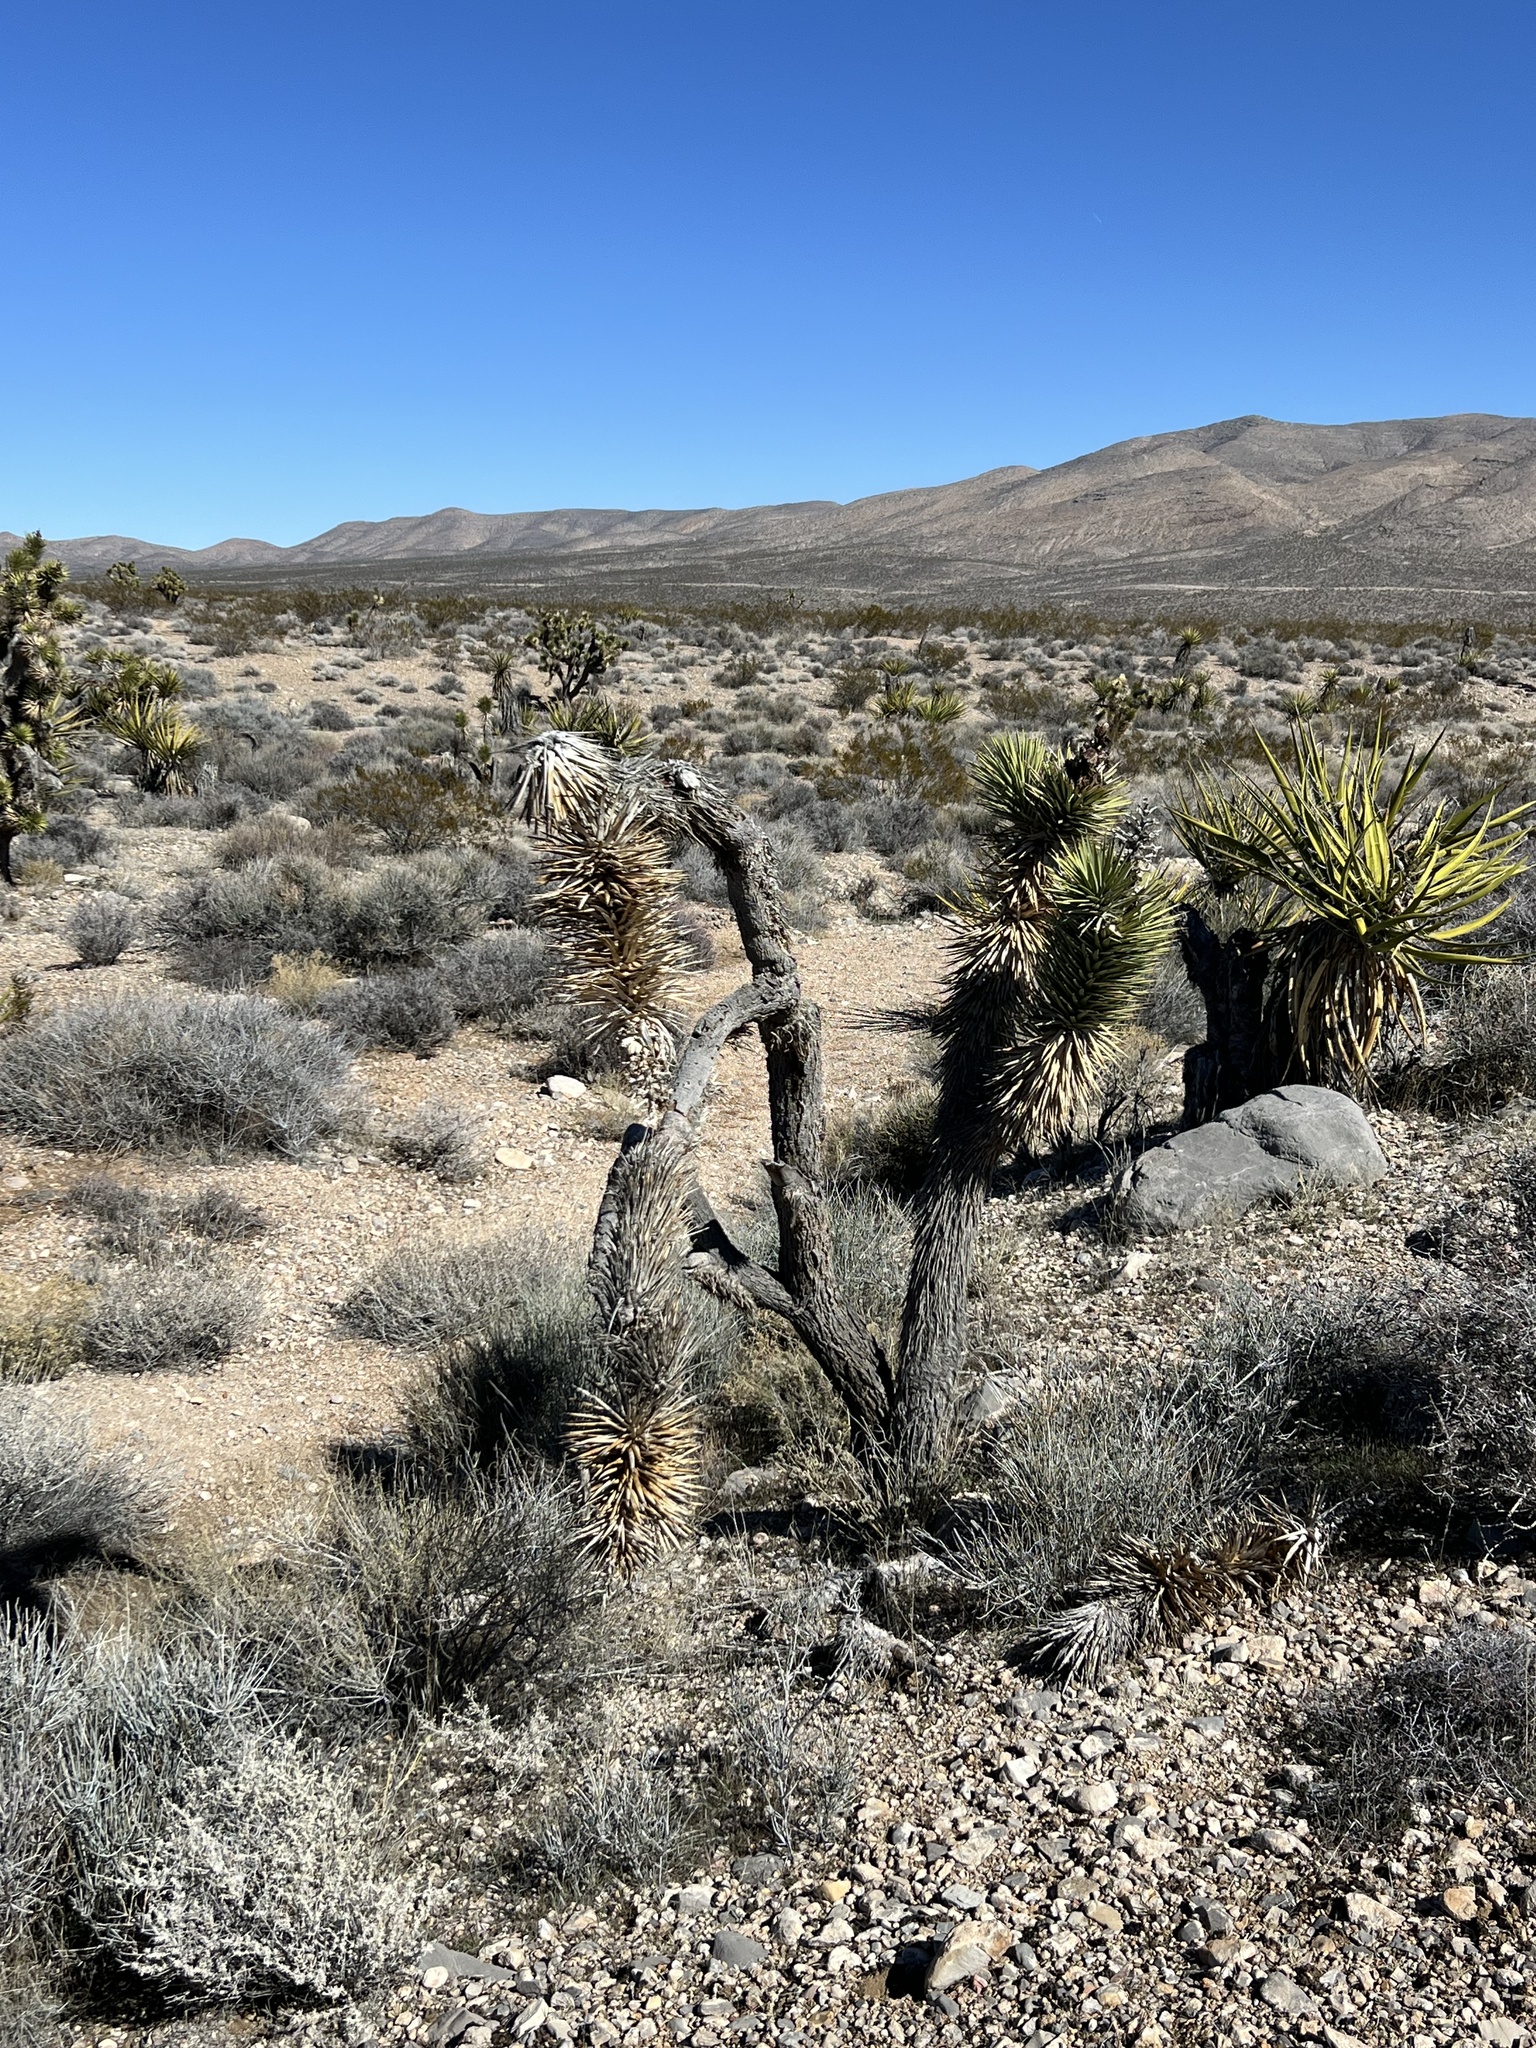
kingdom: Plantae
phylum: Tracheophyta
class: Liliopsida
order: Asparagales
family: Asparagaceae
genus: Yucca
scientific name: Yucca brevifolia
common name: Joshua tree
